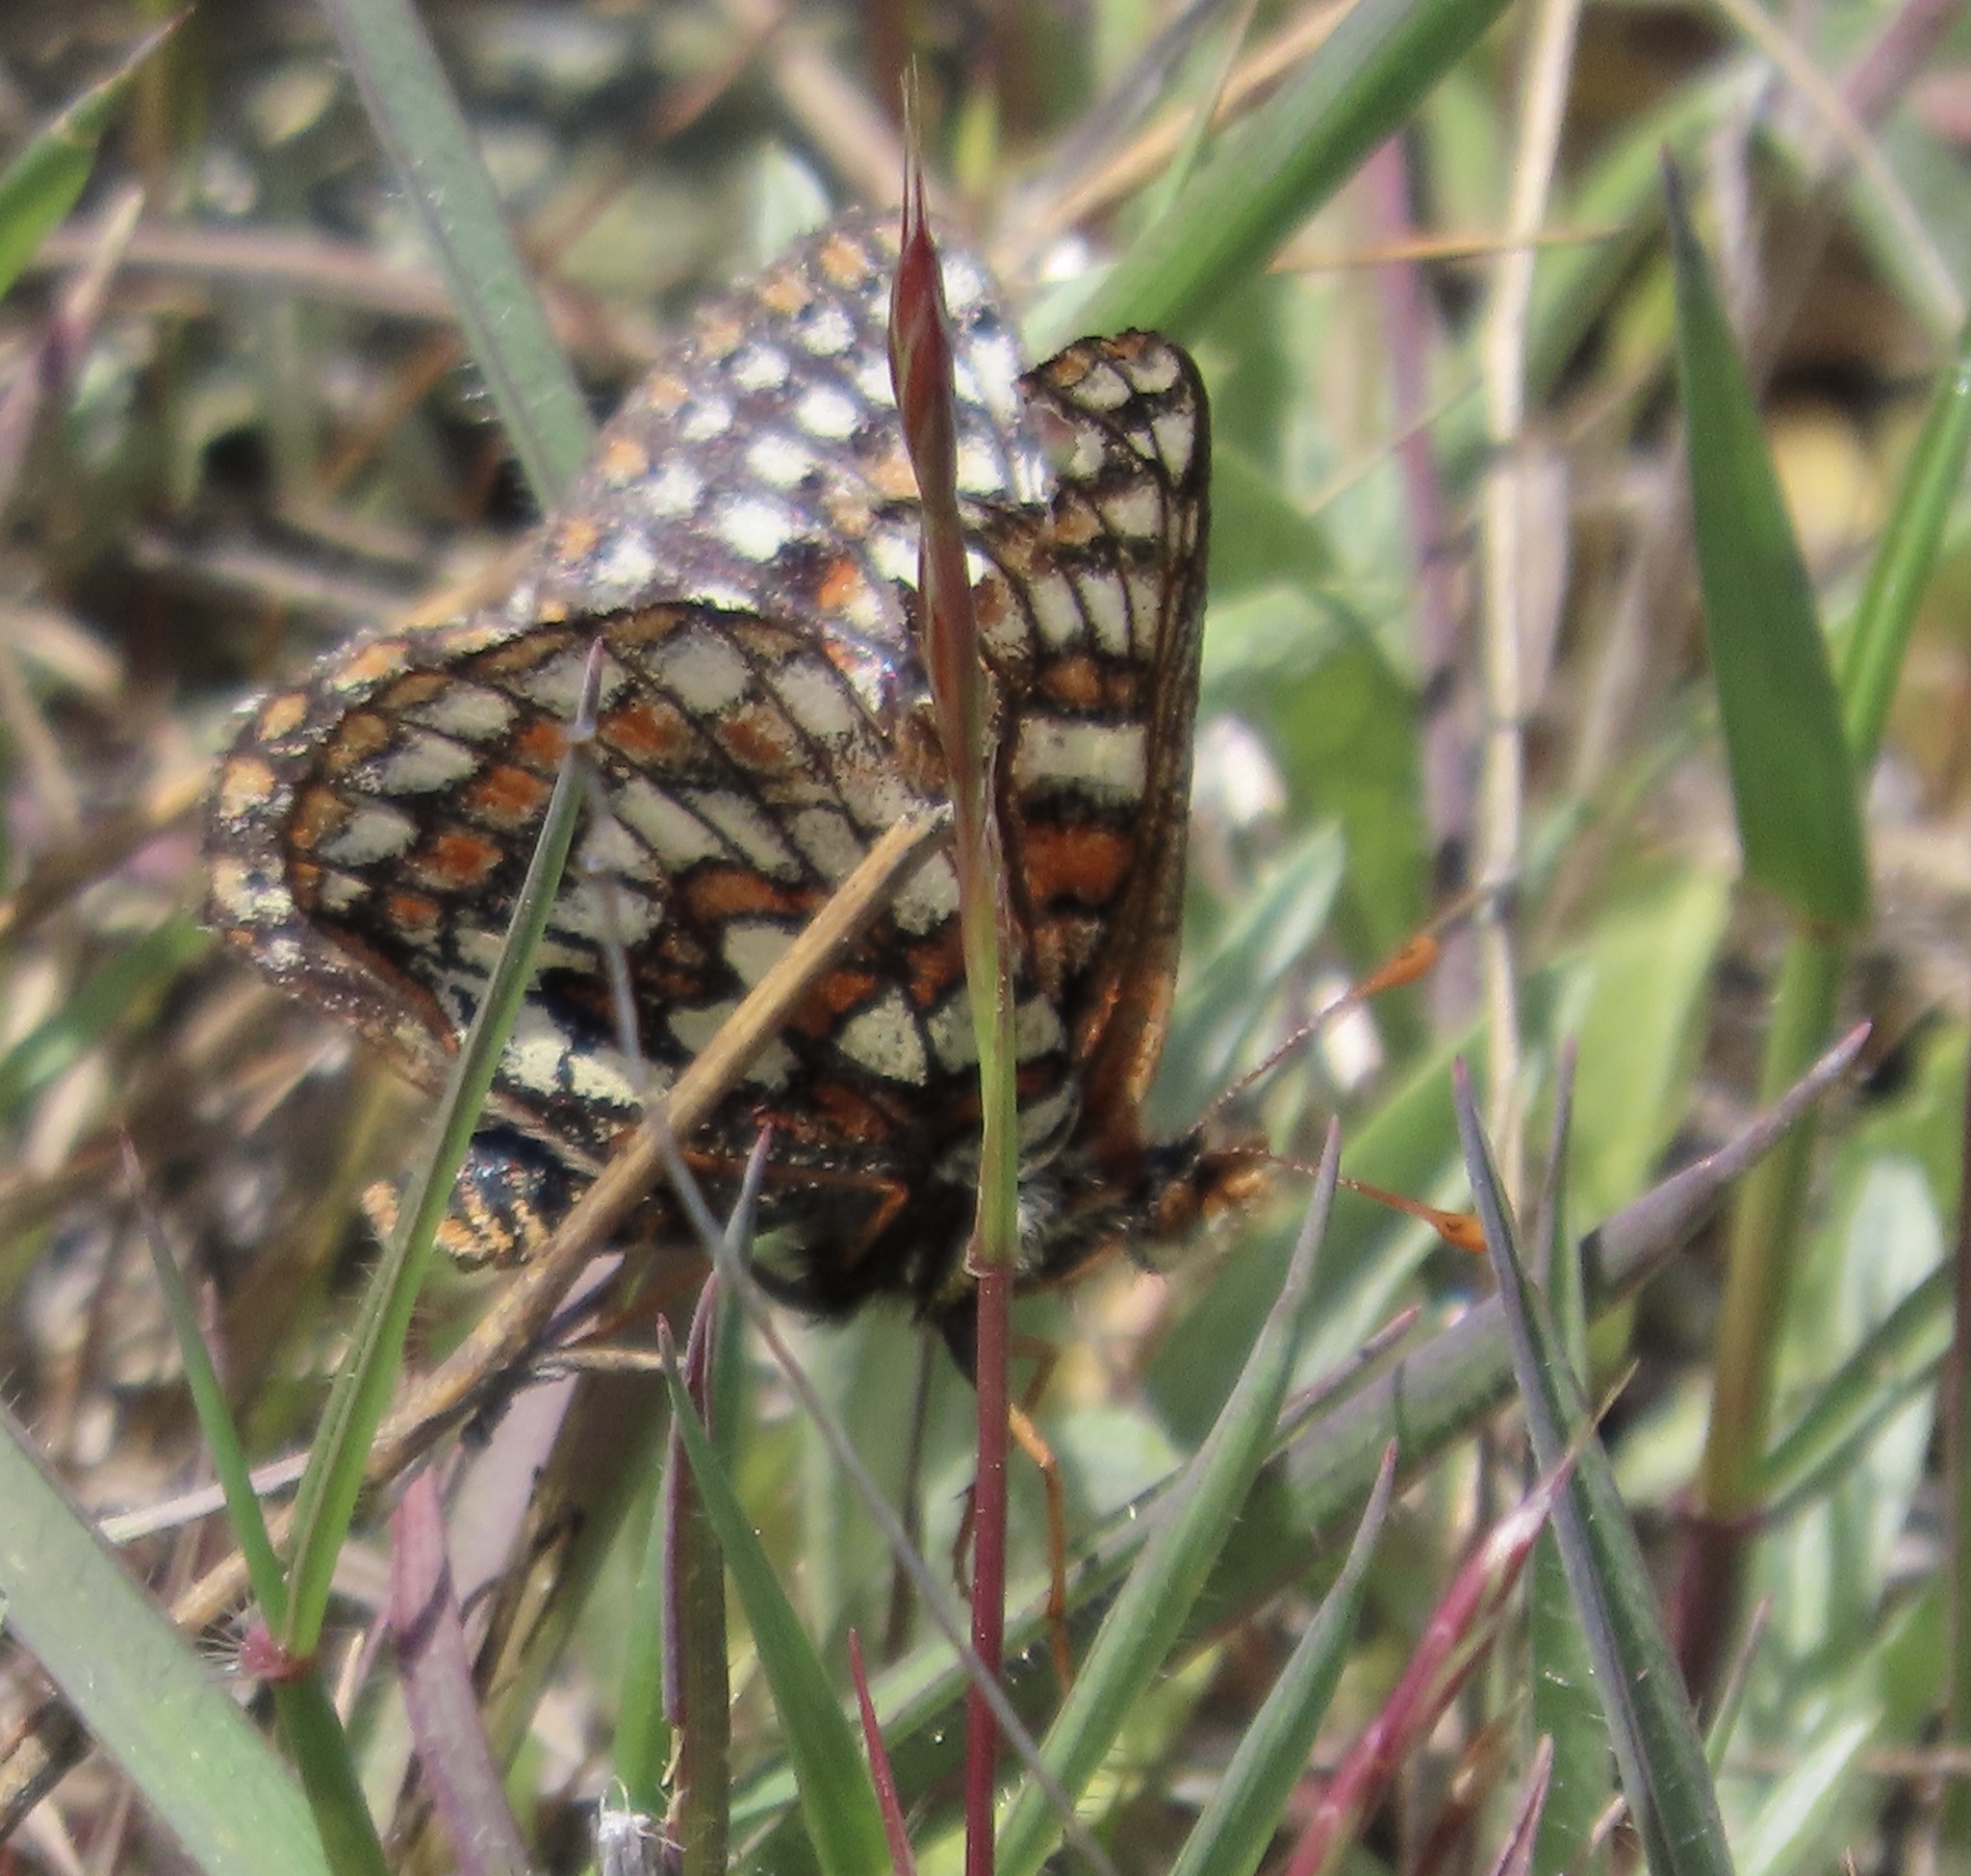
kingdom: Animalia
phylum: Arthropoda
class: Insecta
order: Lepidoptera
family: Nymphalidae
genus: Occidryas
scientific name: Occidryas editha
